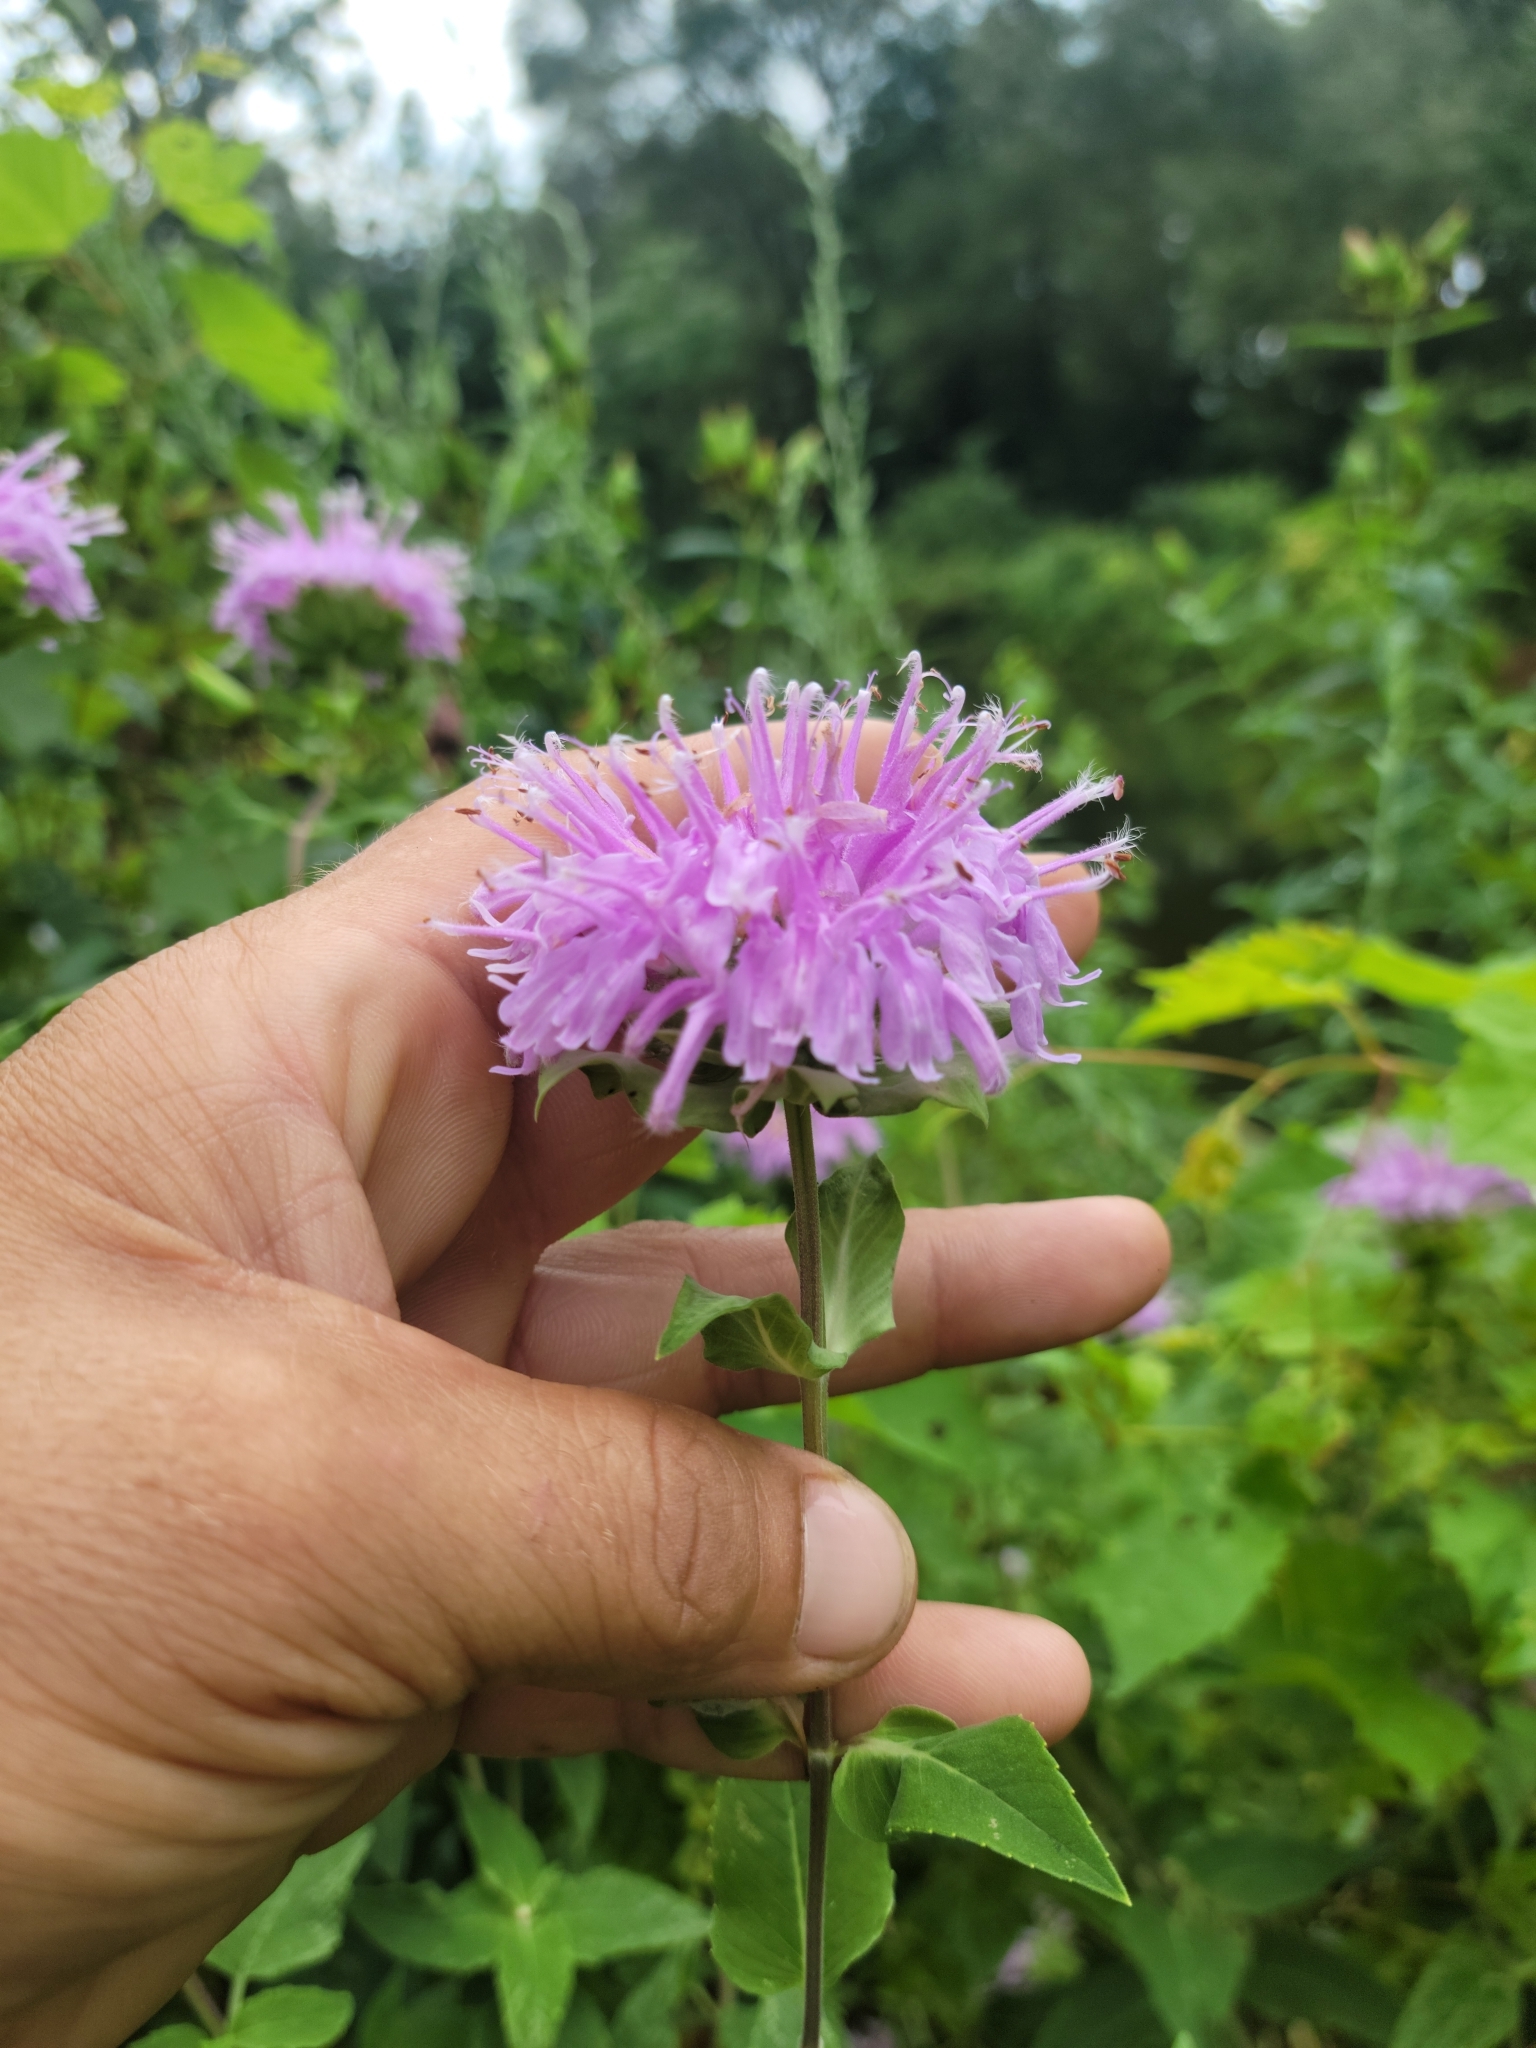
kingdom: Plantae
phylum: Tracheophyta
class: Magnoliopsida
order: Lamiales
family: Lamiaceae
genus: Monarda
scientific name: Monarda fistulosa
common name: Purple beebalm
